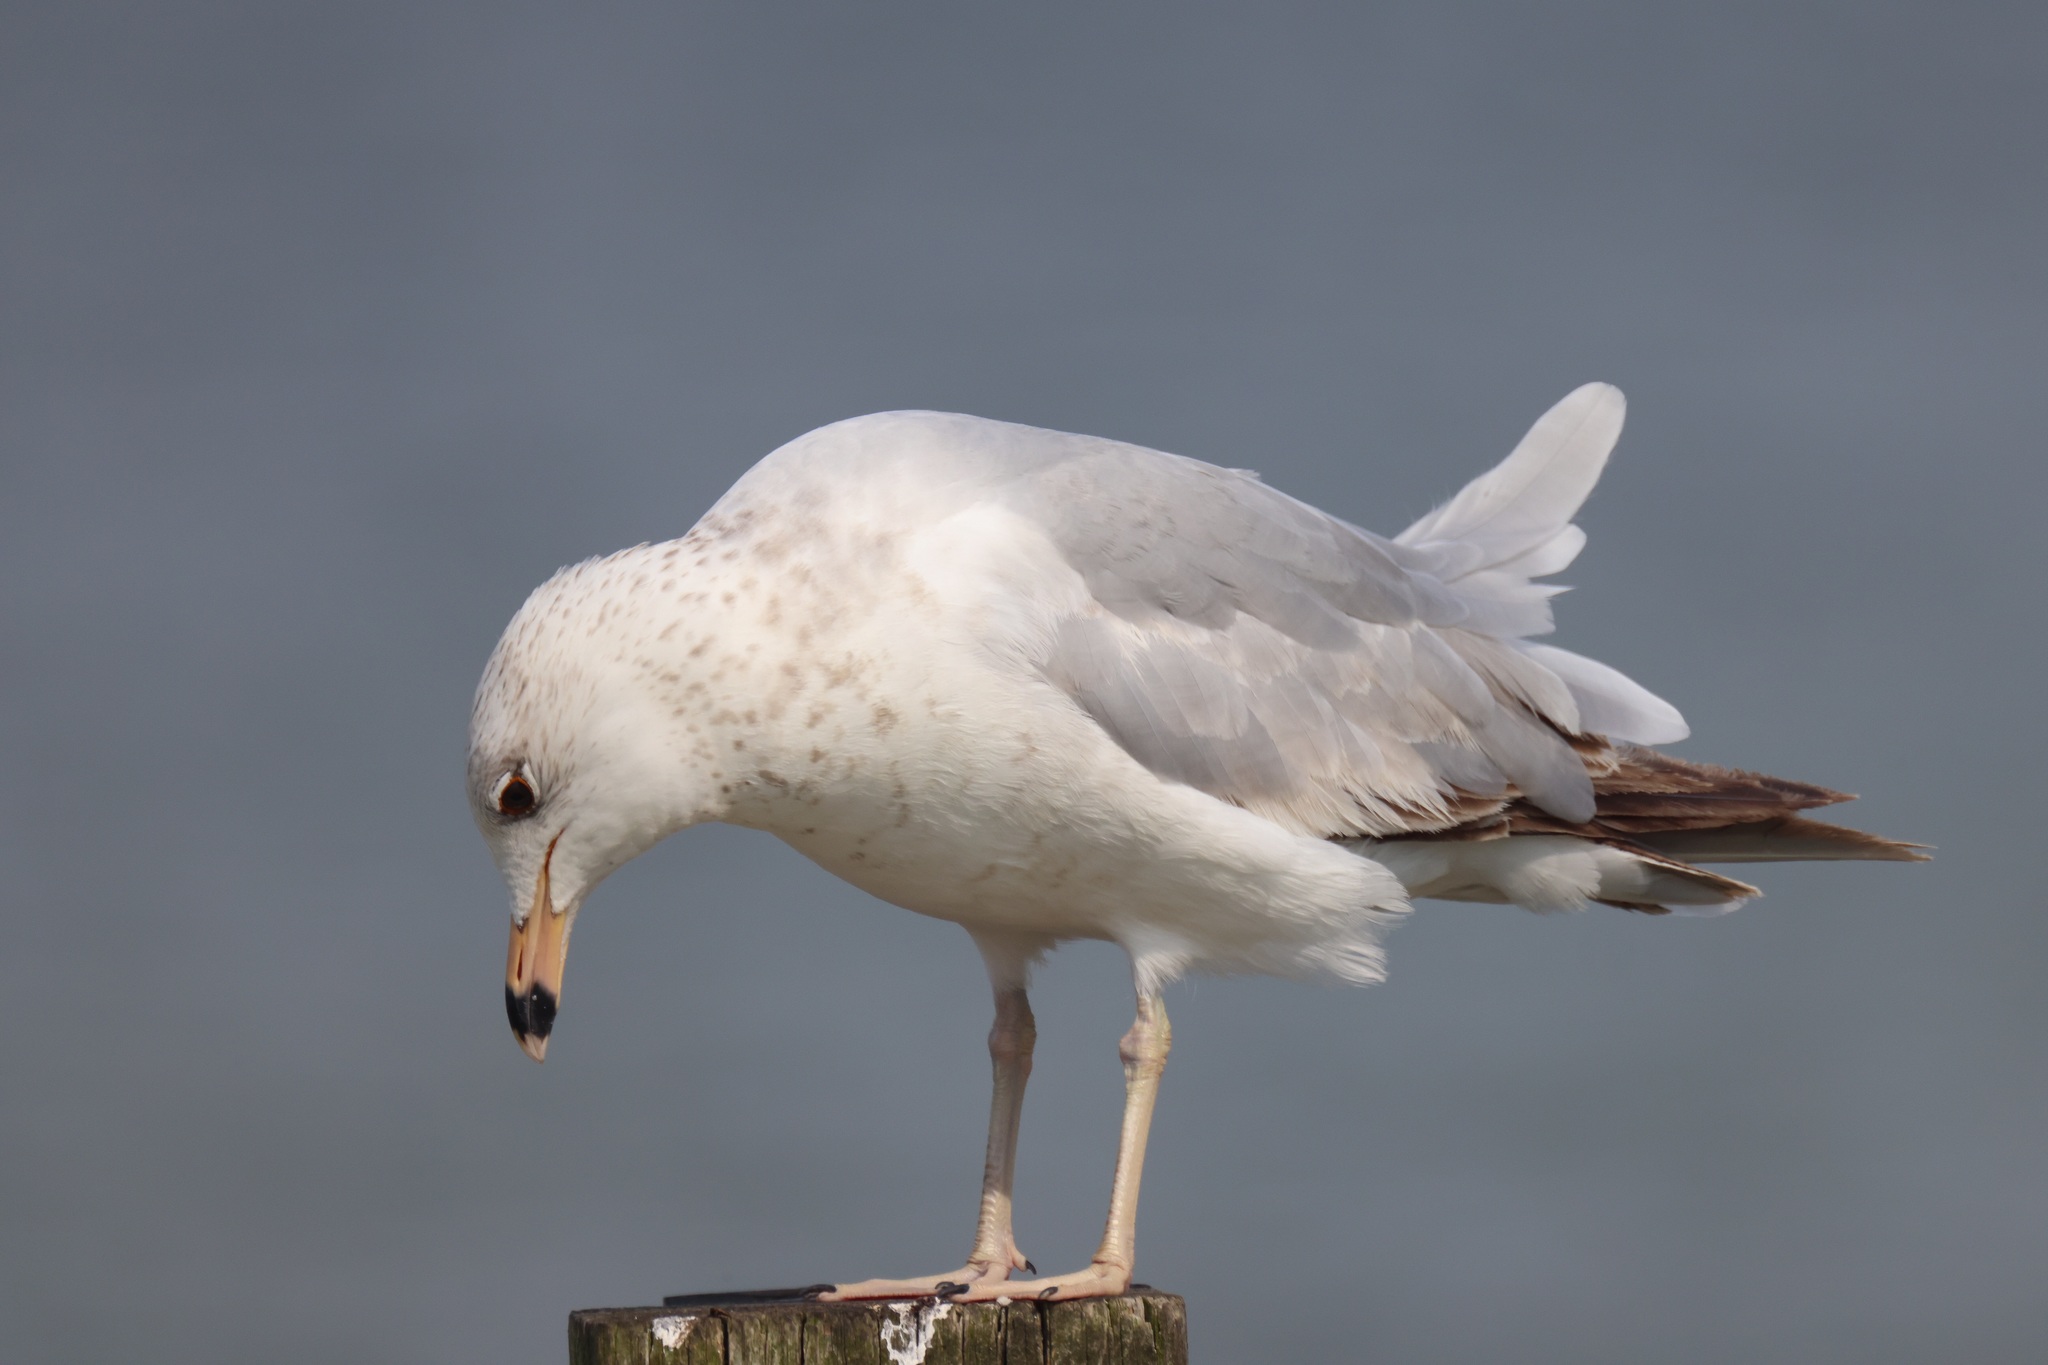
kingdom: Animalia
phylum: Chordata
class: Aves
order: Charadriiformes
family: Laridae
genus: Larus
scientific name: Larus delawarensis
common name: Ring-billed gull
